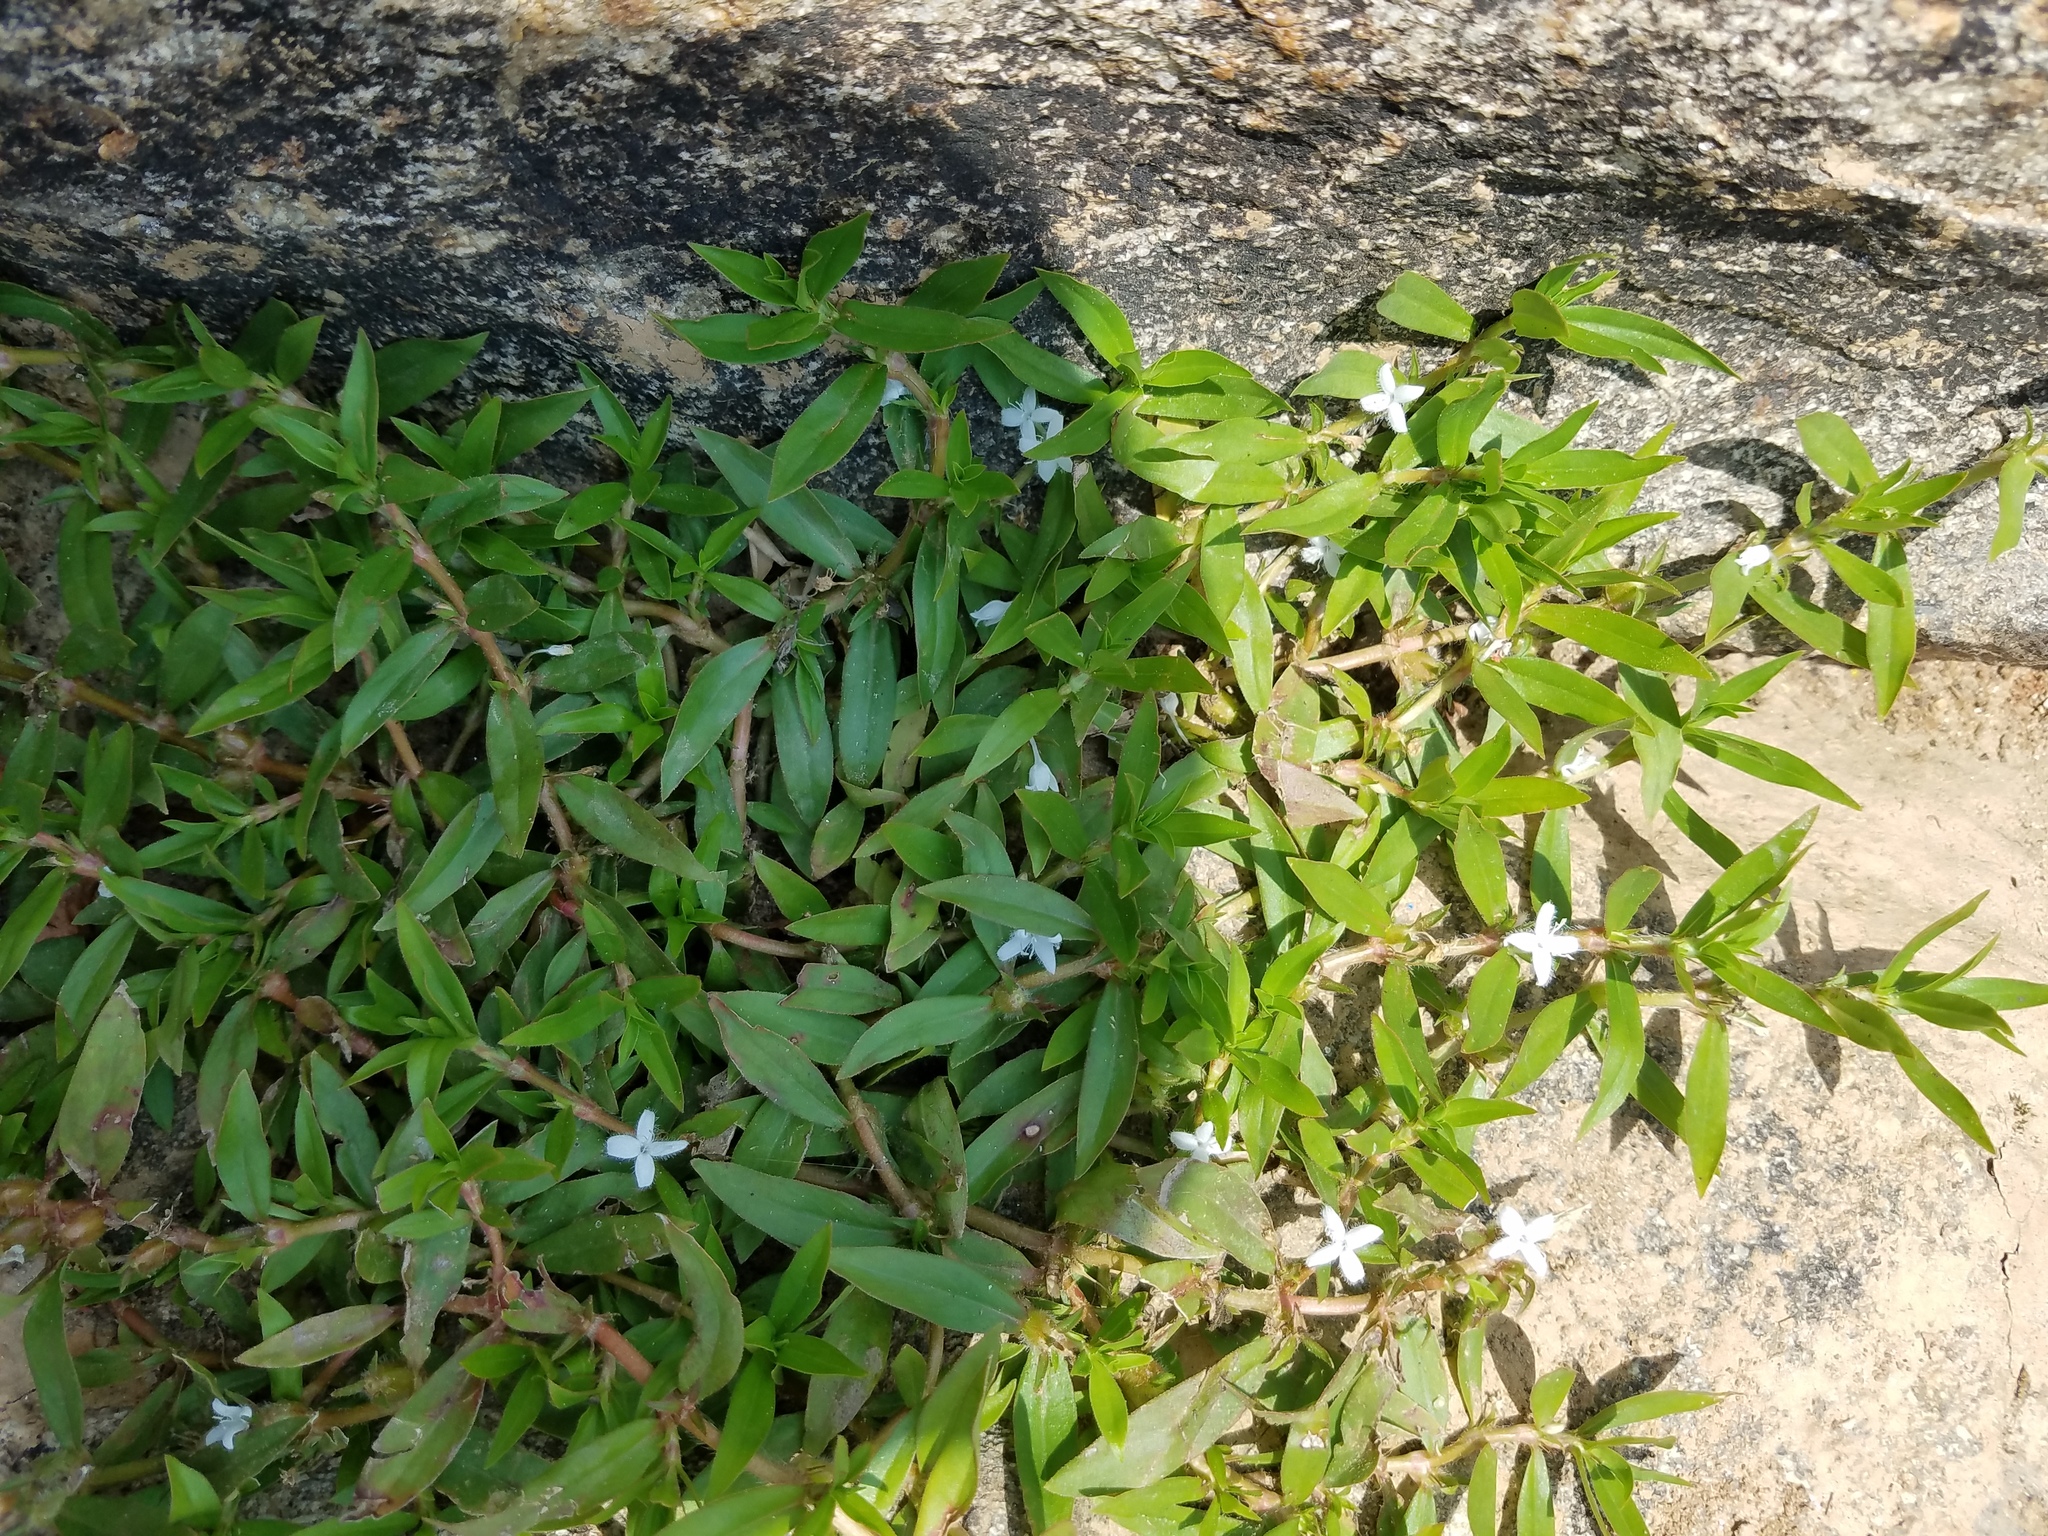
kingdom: Plantae
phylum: Tracheophyta
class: Magnoliopsida
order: Gentianales
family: Rubiaceae
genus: Diodia
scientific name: Diodia virginiana
